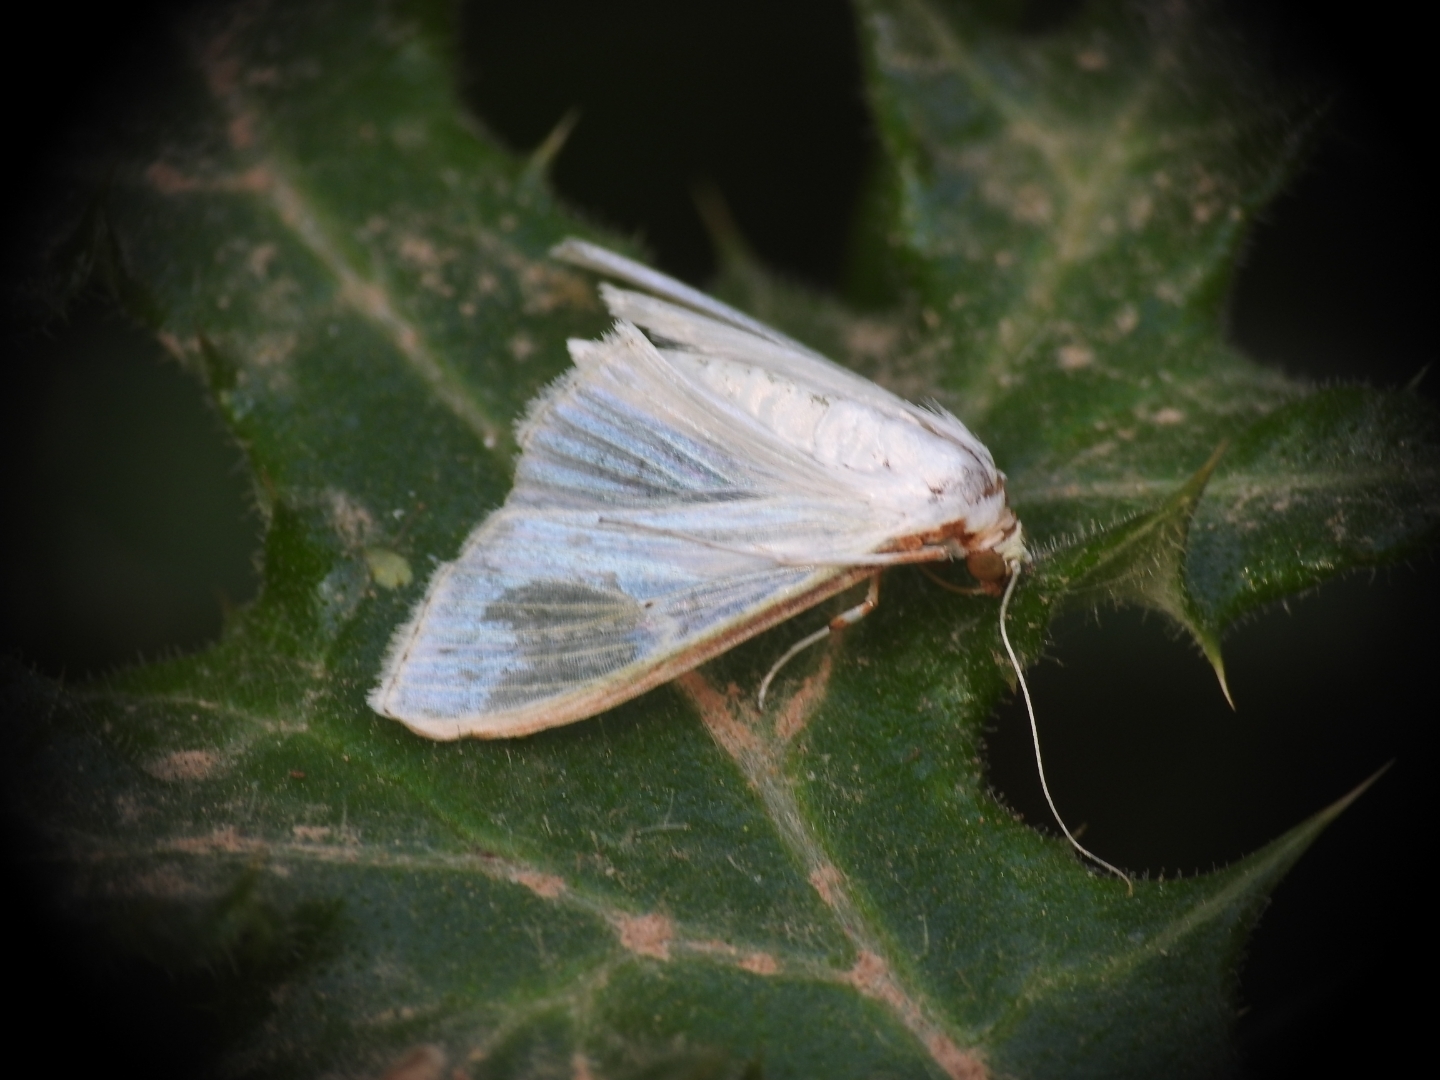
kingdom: Animalia
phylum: Arthropoda
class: Insecta
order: Lepidoptera
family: Crambidae
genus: Palpita
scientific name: Palpita vitrealis
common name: Olive-tree pearl
